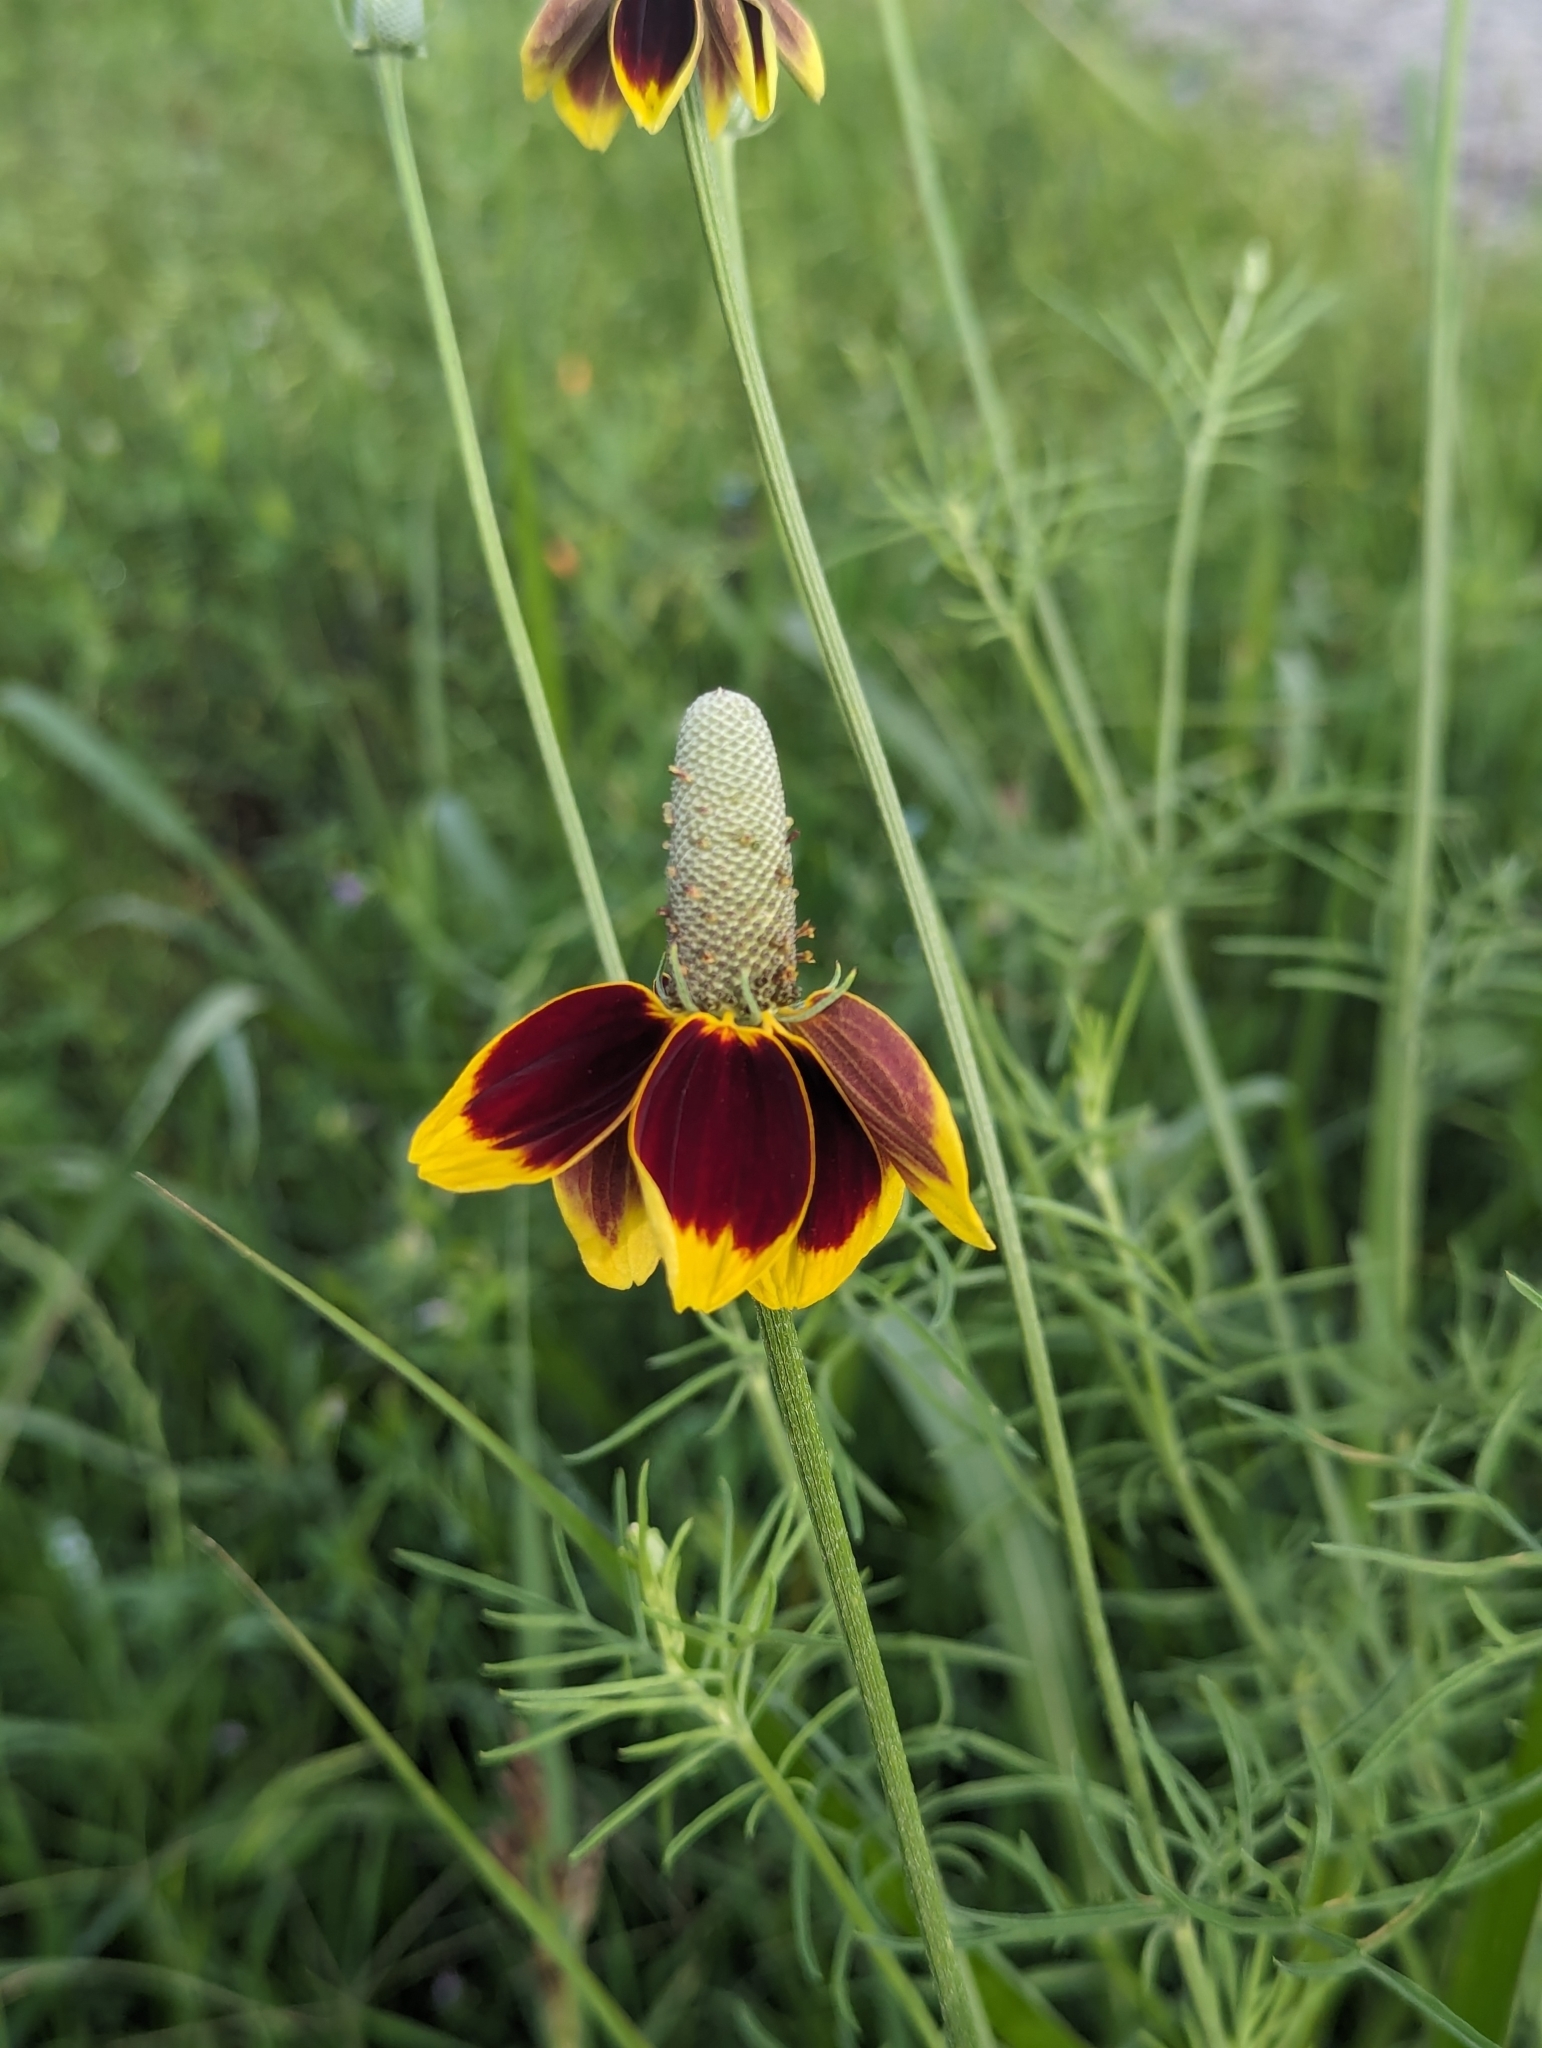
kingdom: Plantae
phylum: Tracheophyta
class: Magnoliopsida
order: Asterales
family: Asteraceae
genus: Ratibida
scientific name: Ratibida columnifera
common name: Prairie coneflower
